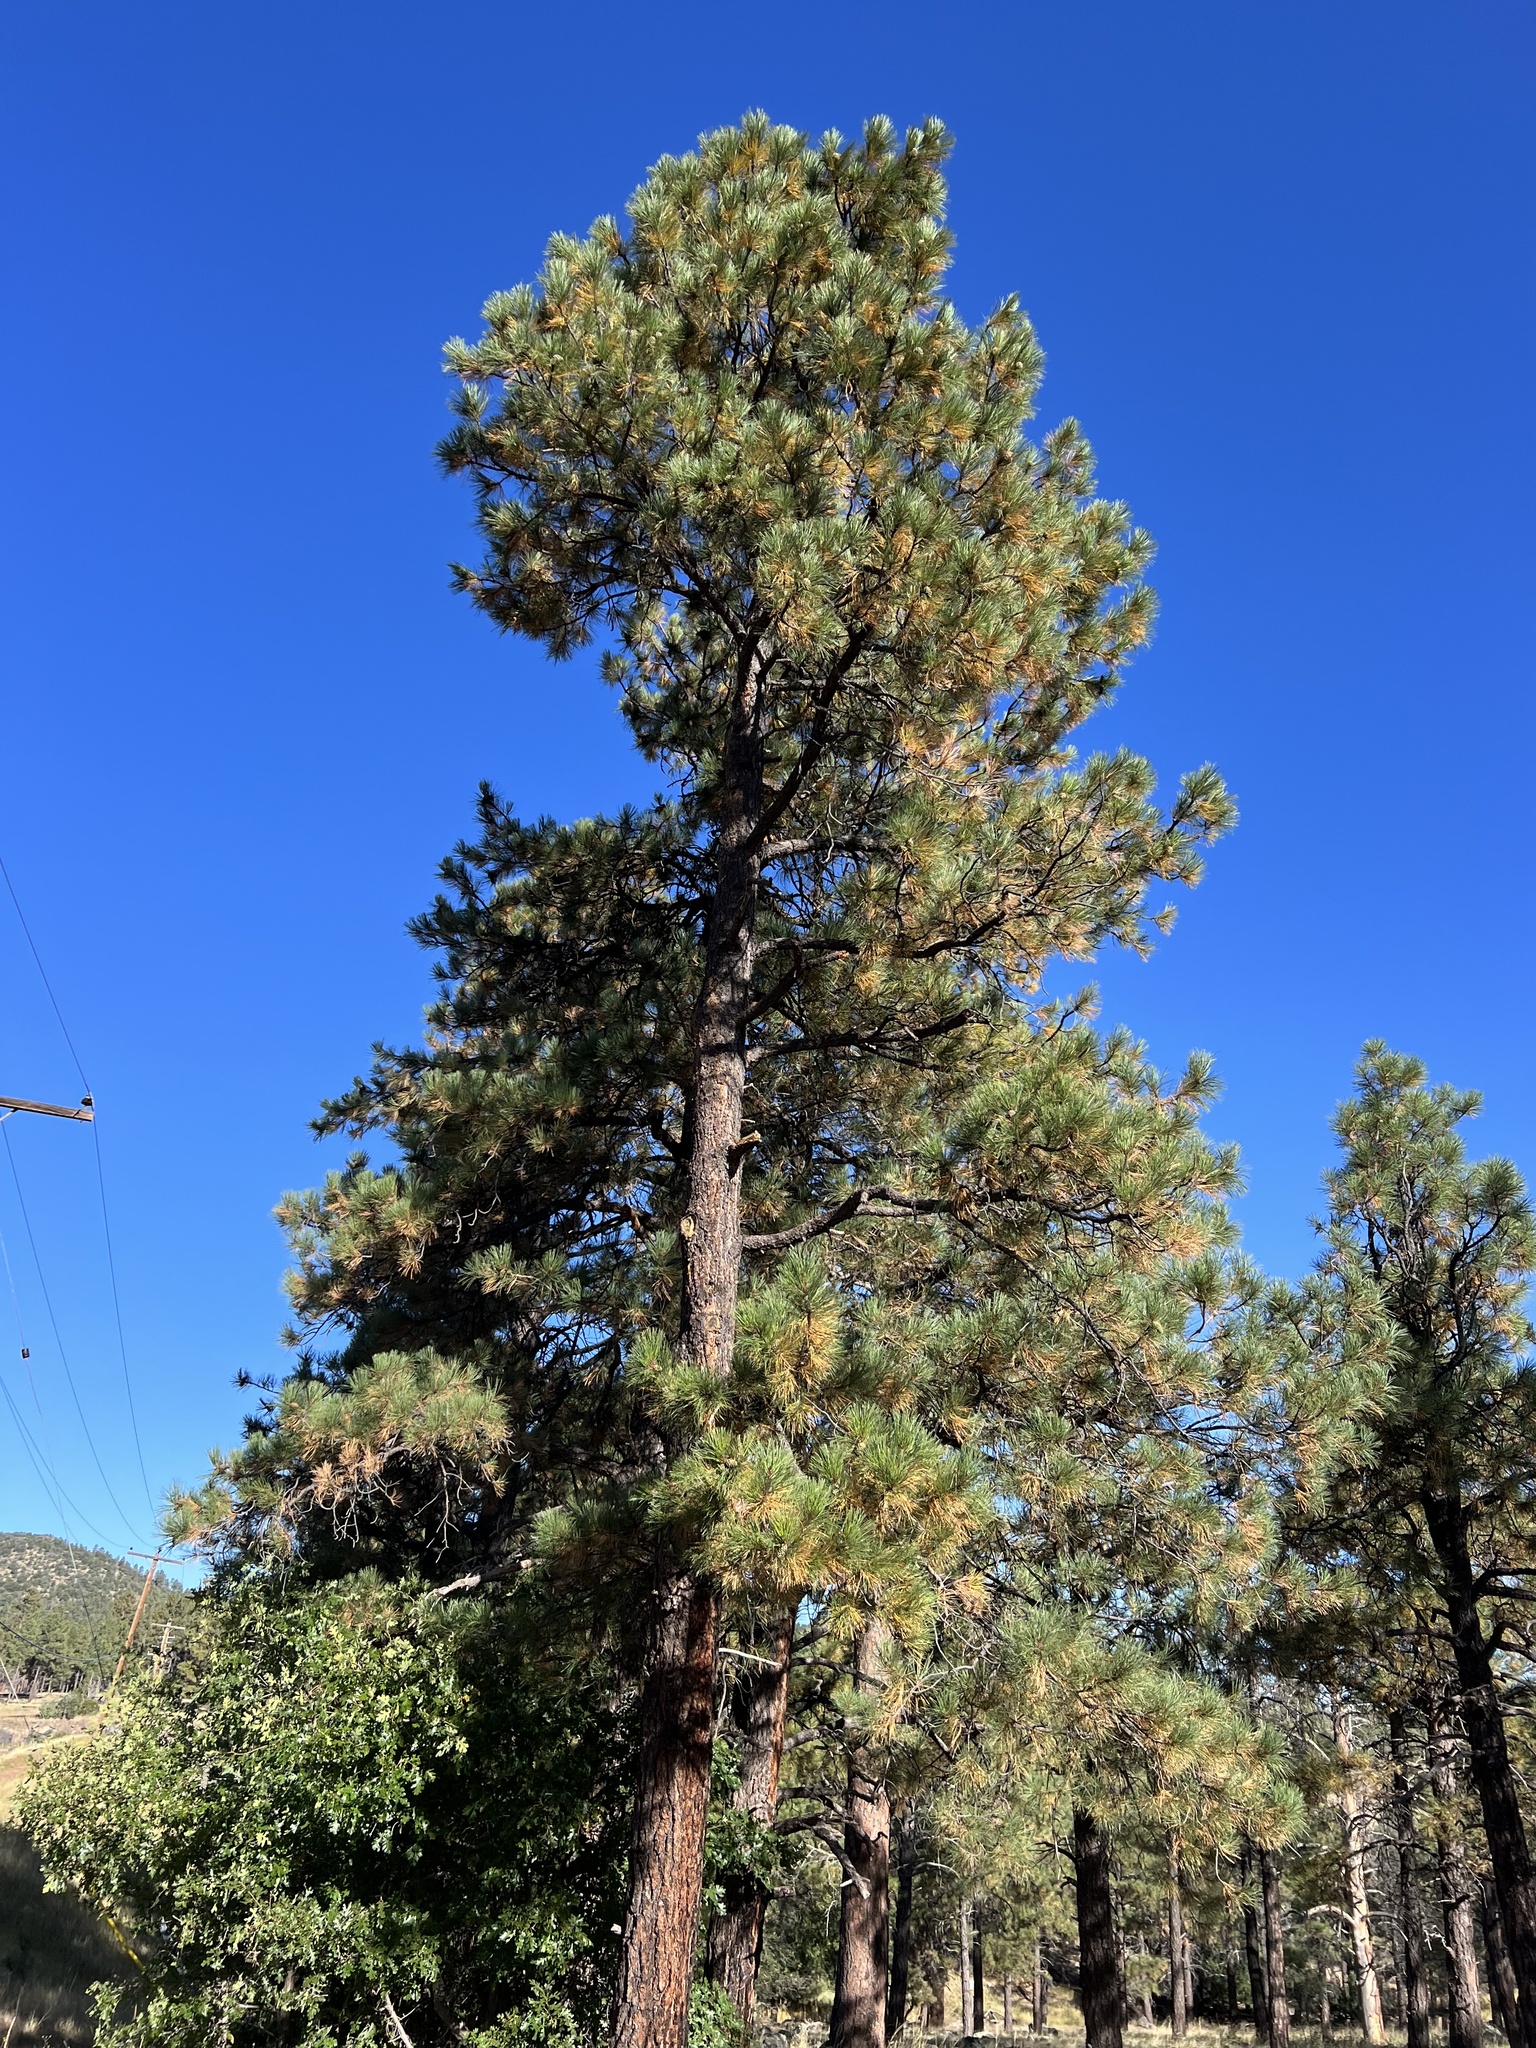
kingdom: Plantae
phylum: Tracheophyta
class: Pinopsida
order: Pinales
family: Pinaceae
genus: Pinus
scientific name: Pinus ponderosa
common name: Western yellow-pine
